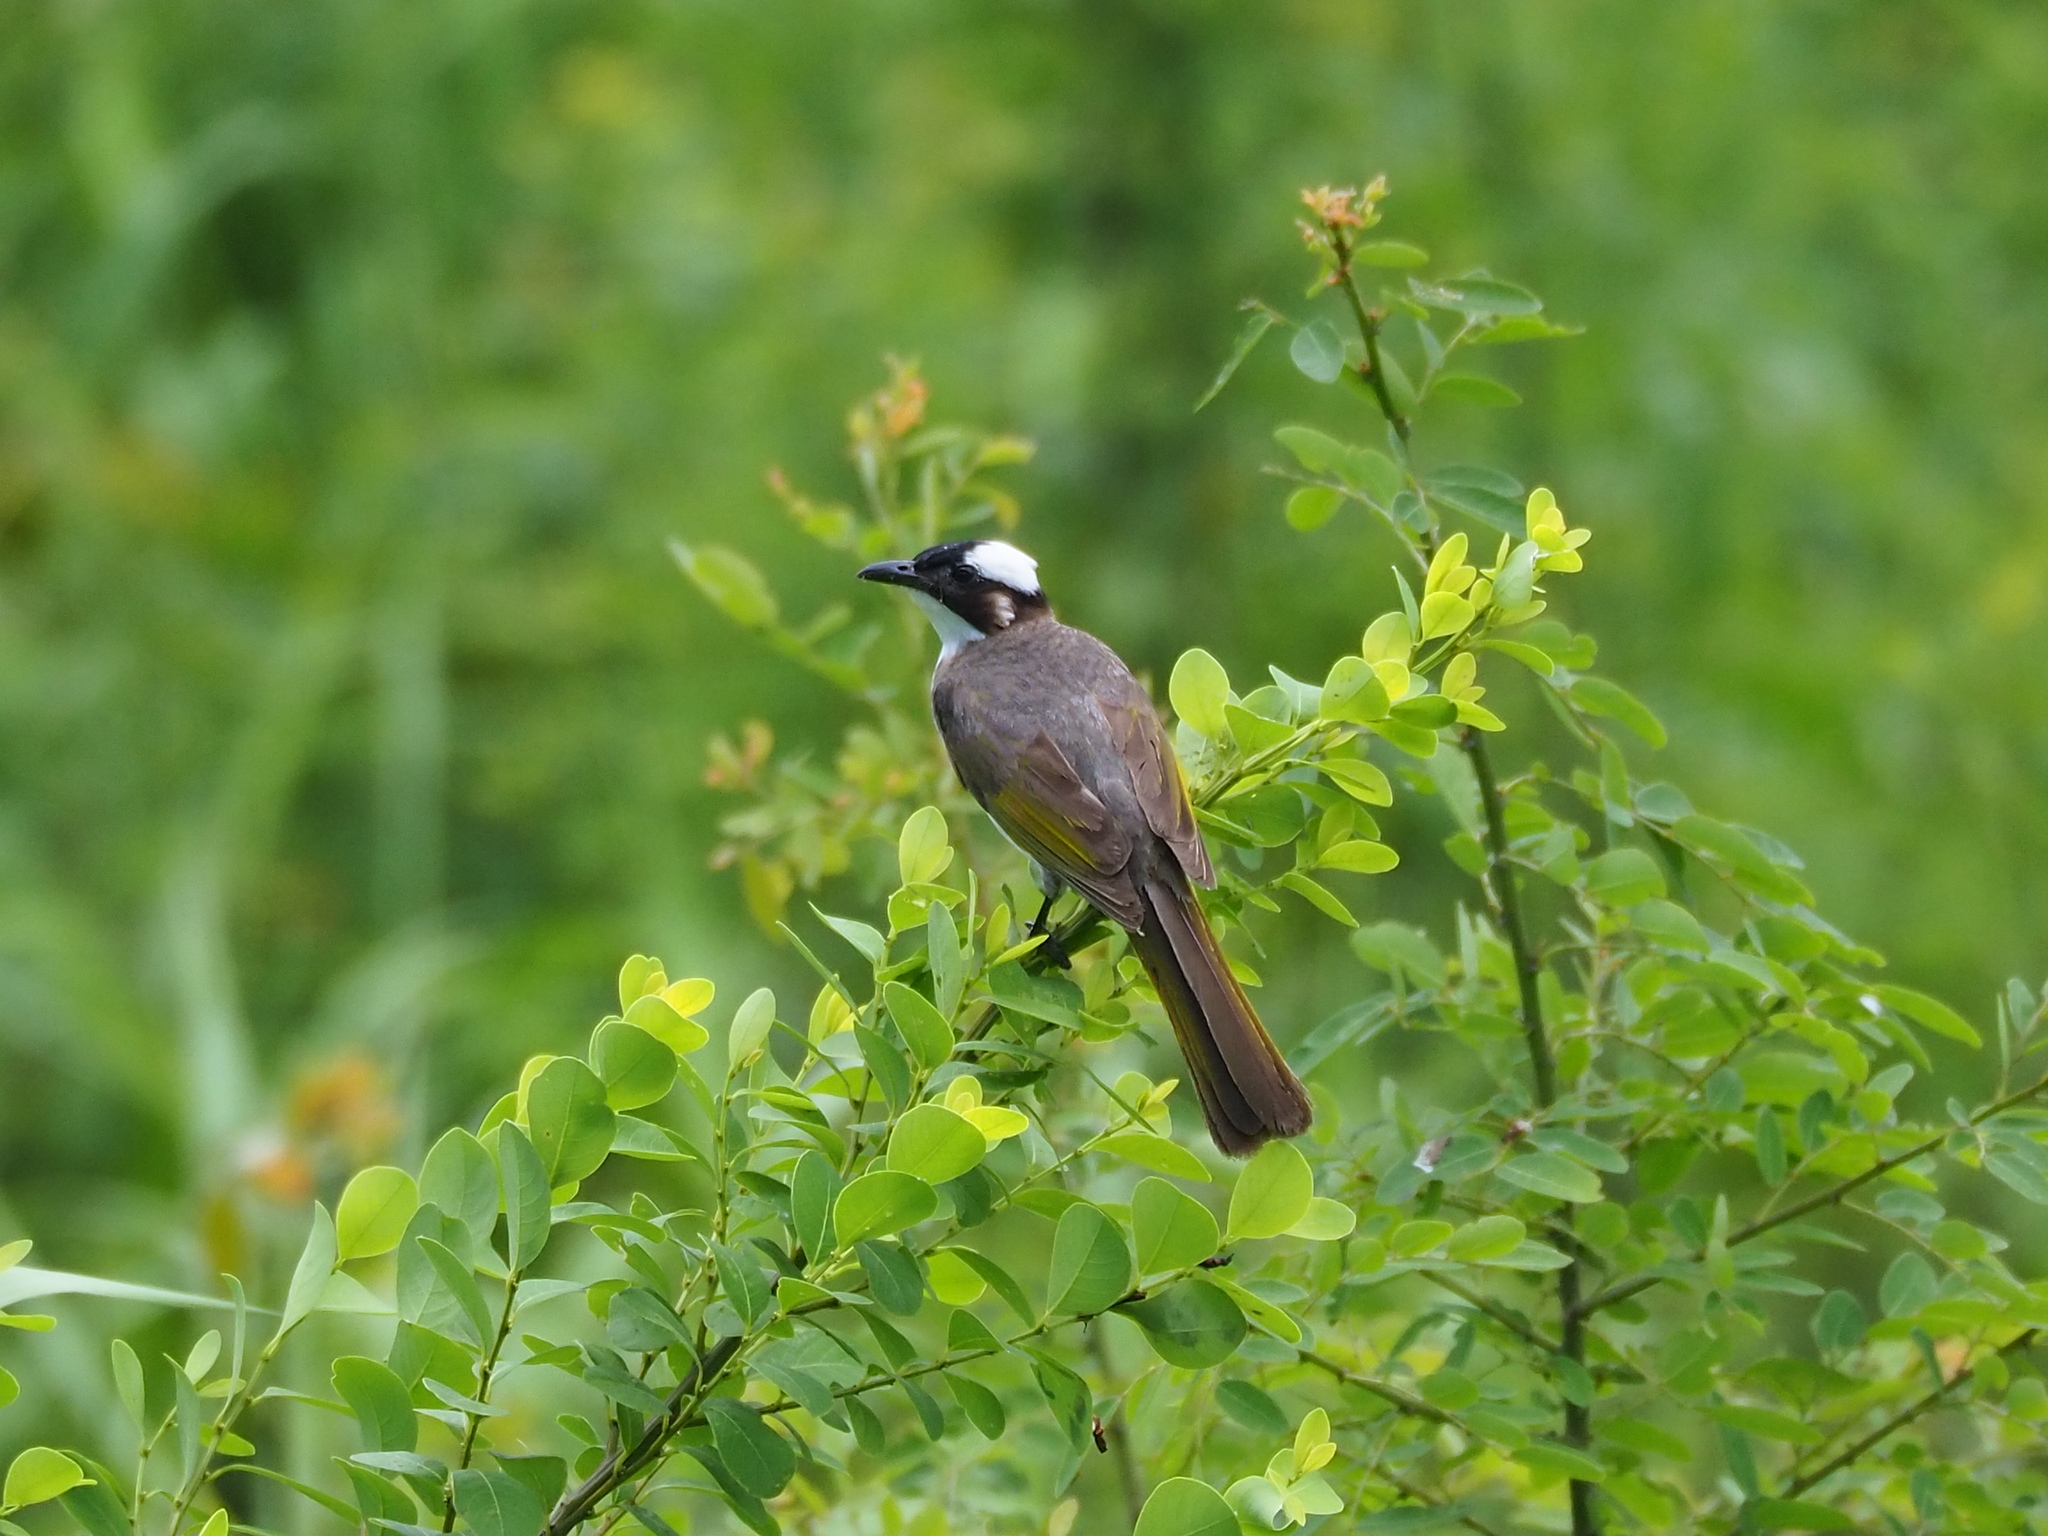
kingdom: Animalia
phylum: Chordata
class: Aves
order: Passeriformes
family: Pycnonotidae
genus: Pycnonotus
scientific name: Pycnonotus sinensis
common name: Light-vented bulbul
